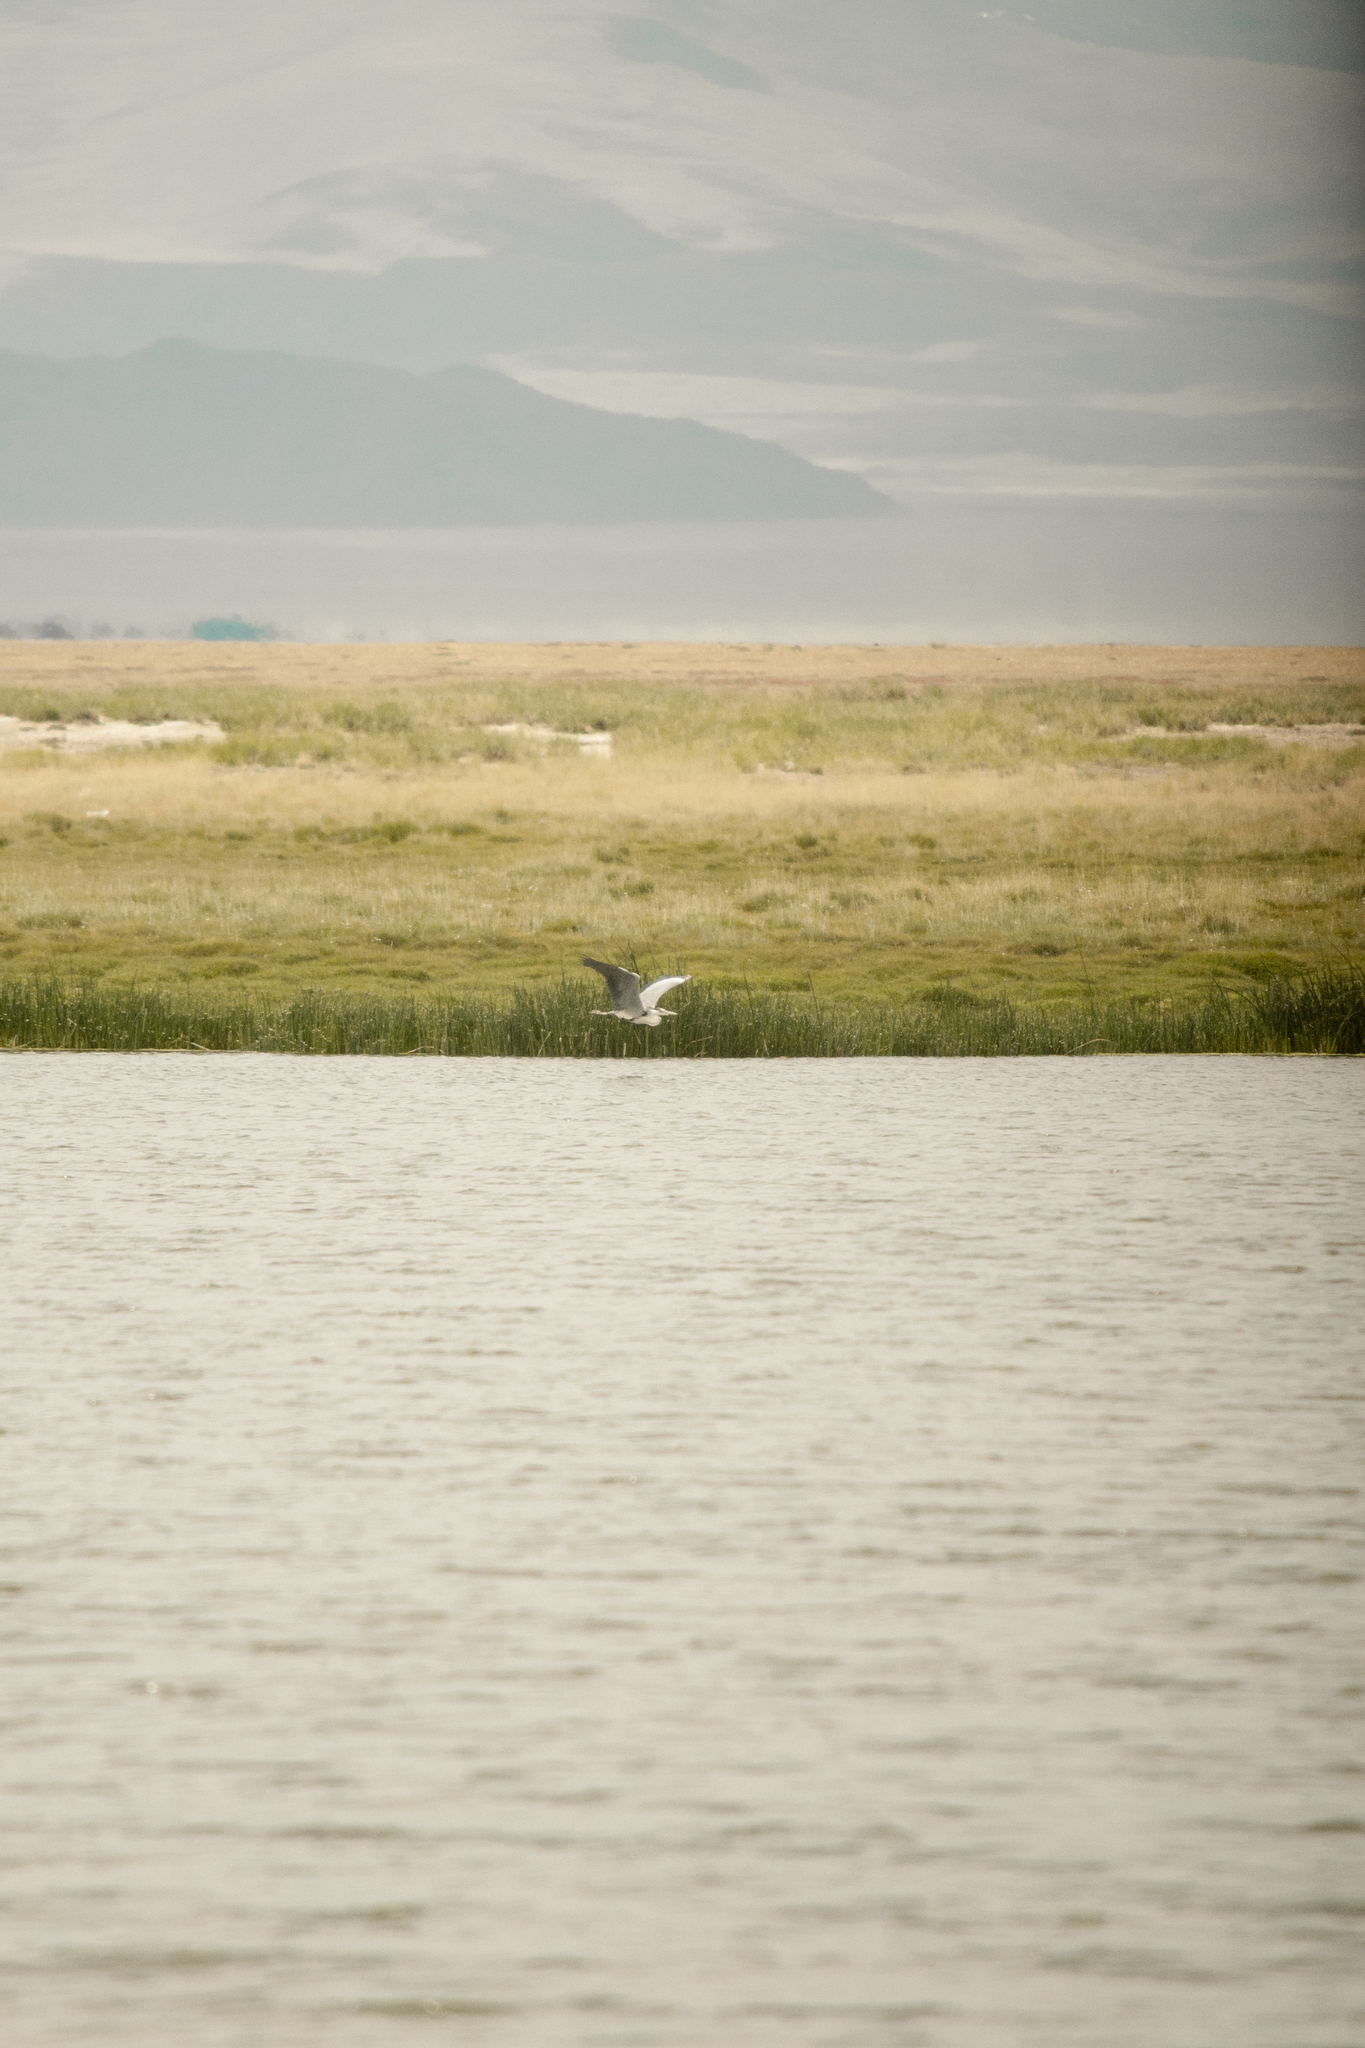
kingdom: Animalia
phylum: Chordata
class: Aves
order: Pelecaniformes
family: Ardeidae
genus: Ardea
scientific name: Ardea cinerea
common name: Grey heron
